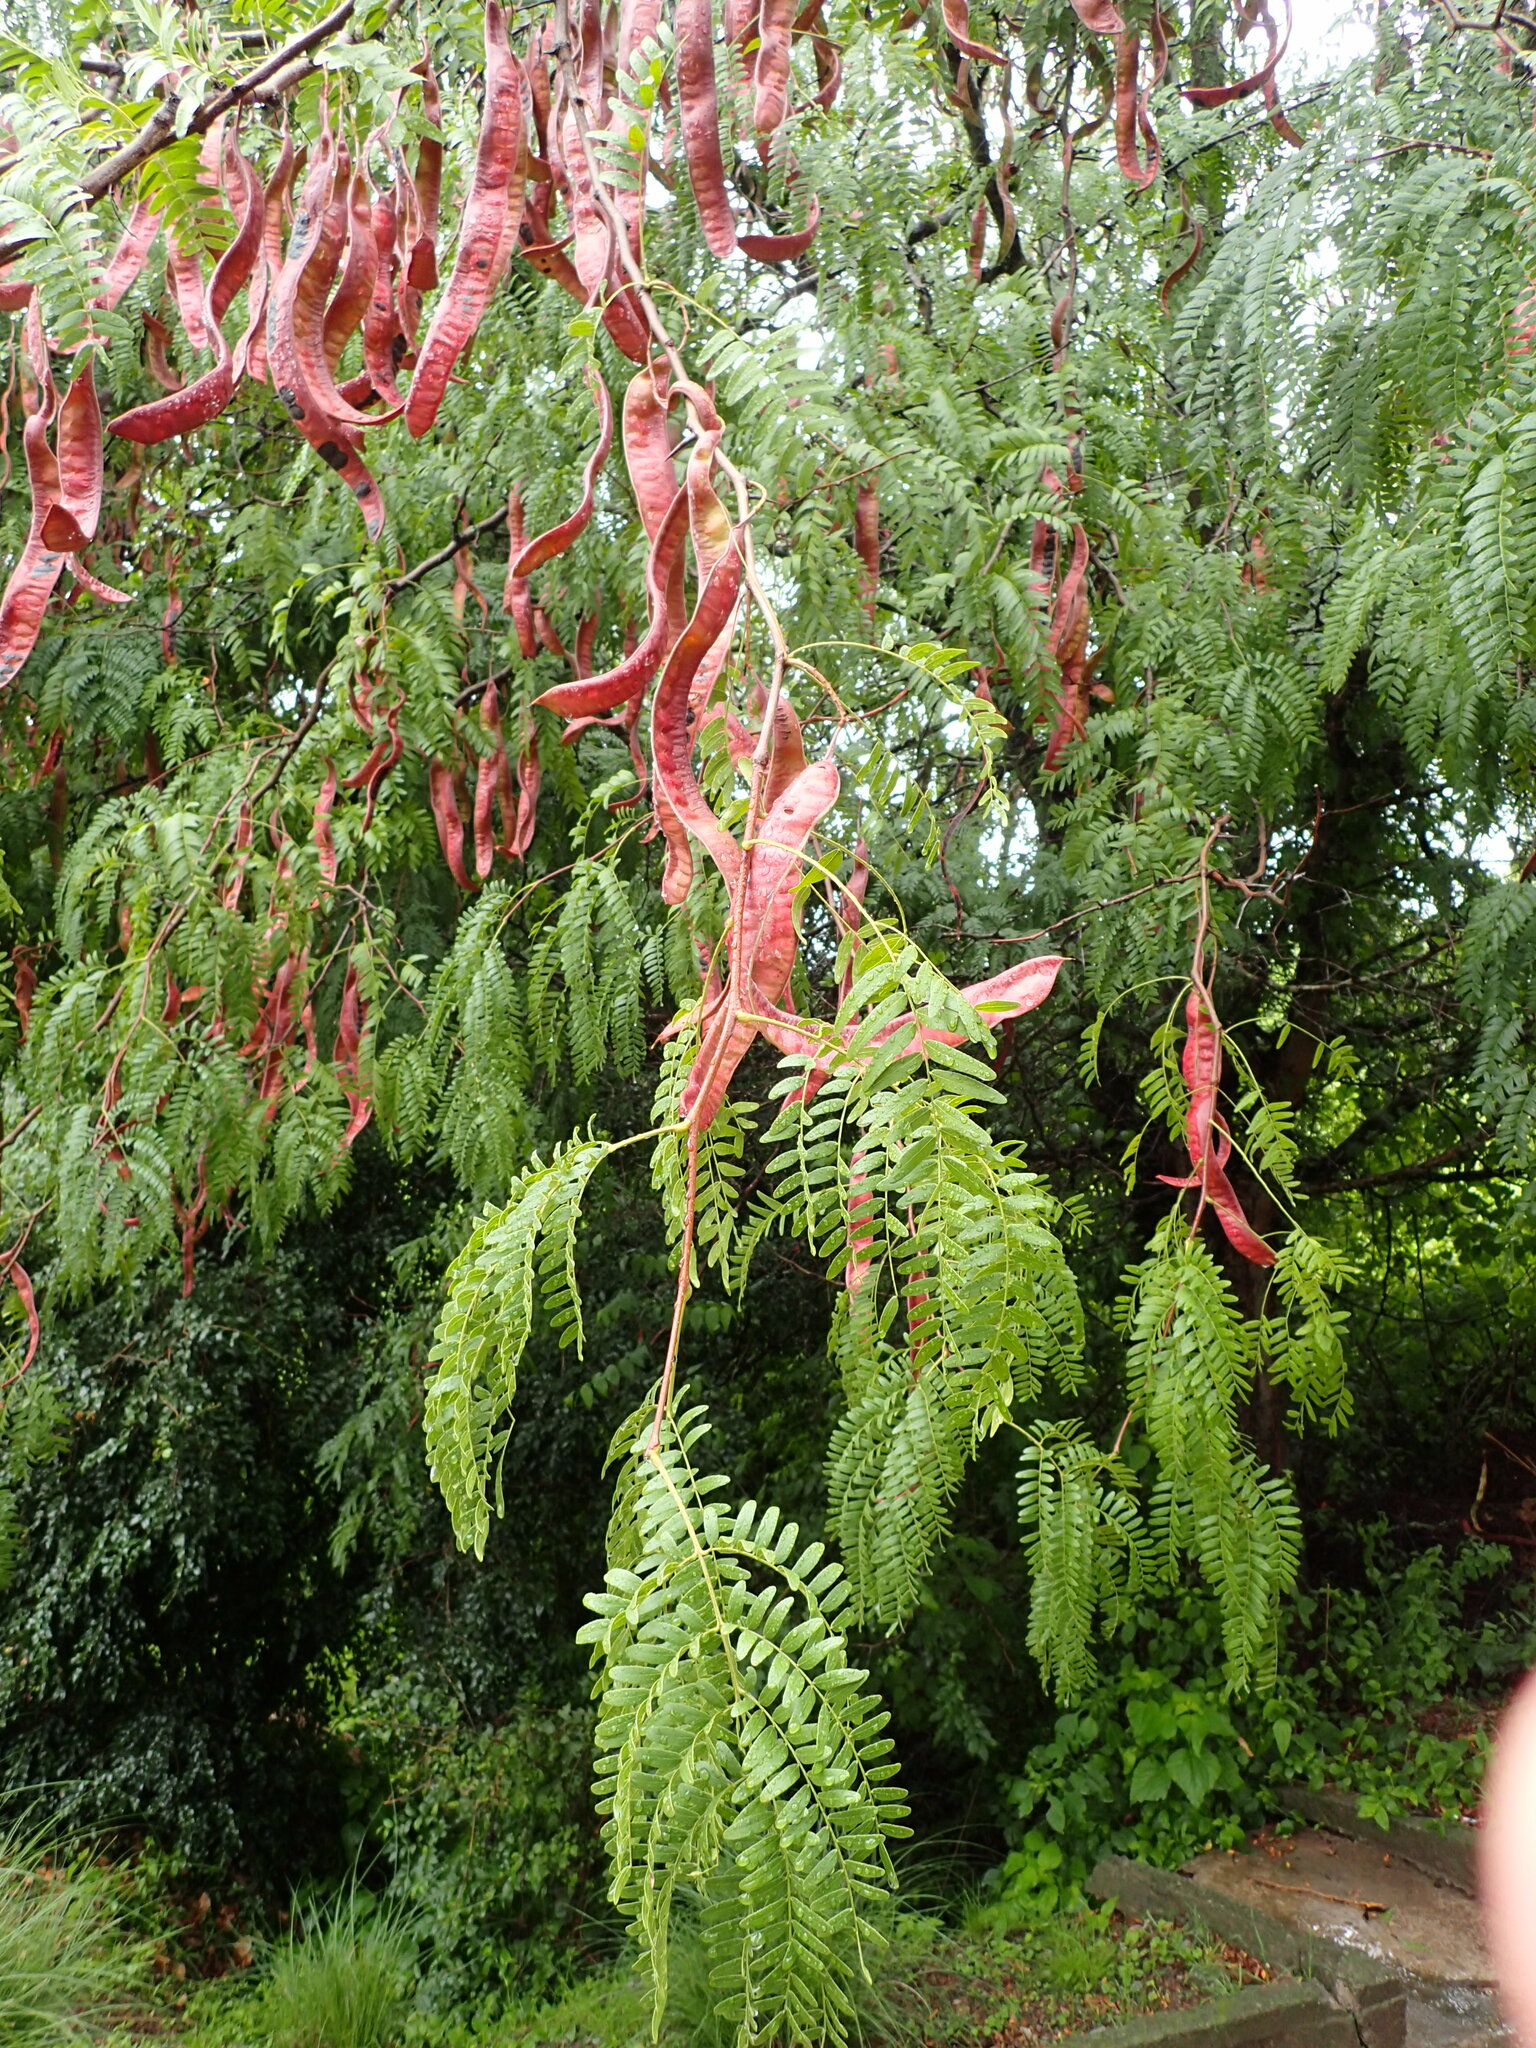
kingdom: Plantae
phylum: Tracheophyta
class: Magnoliopsida
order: Fabales
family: Fabaceae
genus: Gleditsia
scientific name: Gleditsia triacanthos
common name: Common honeylocust
